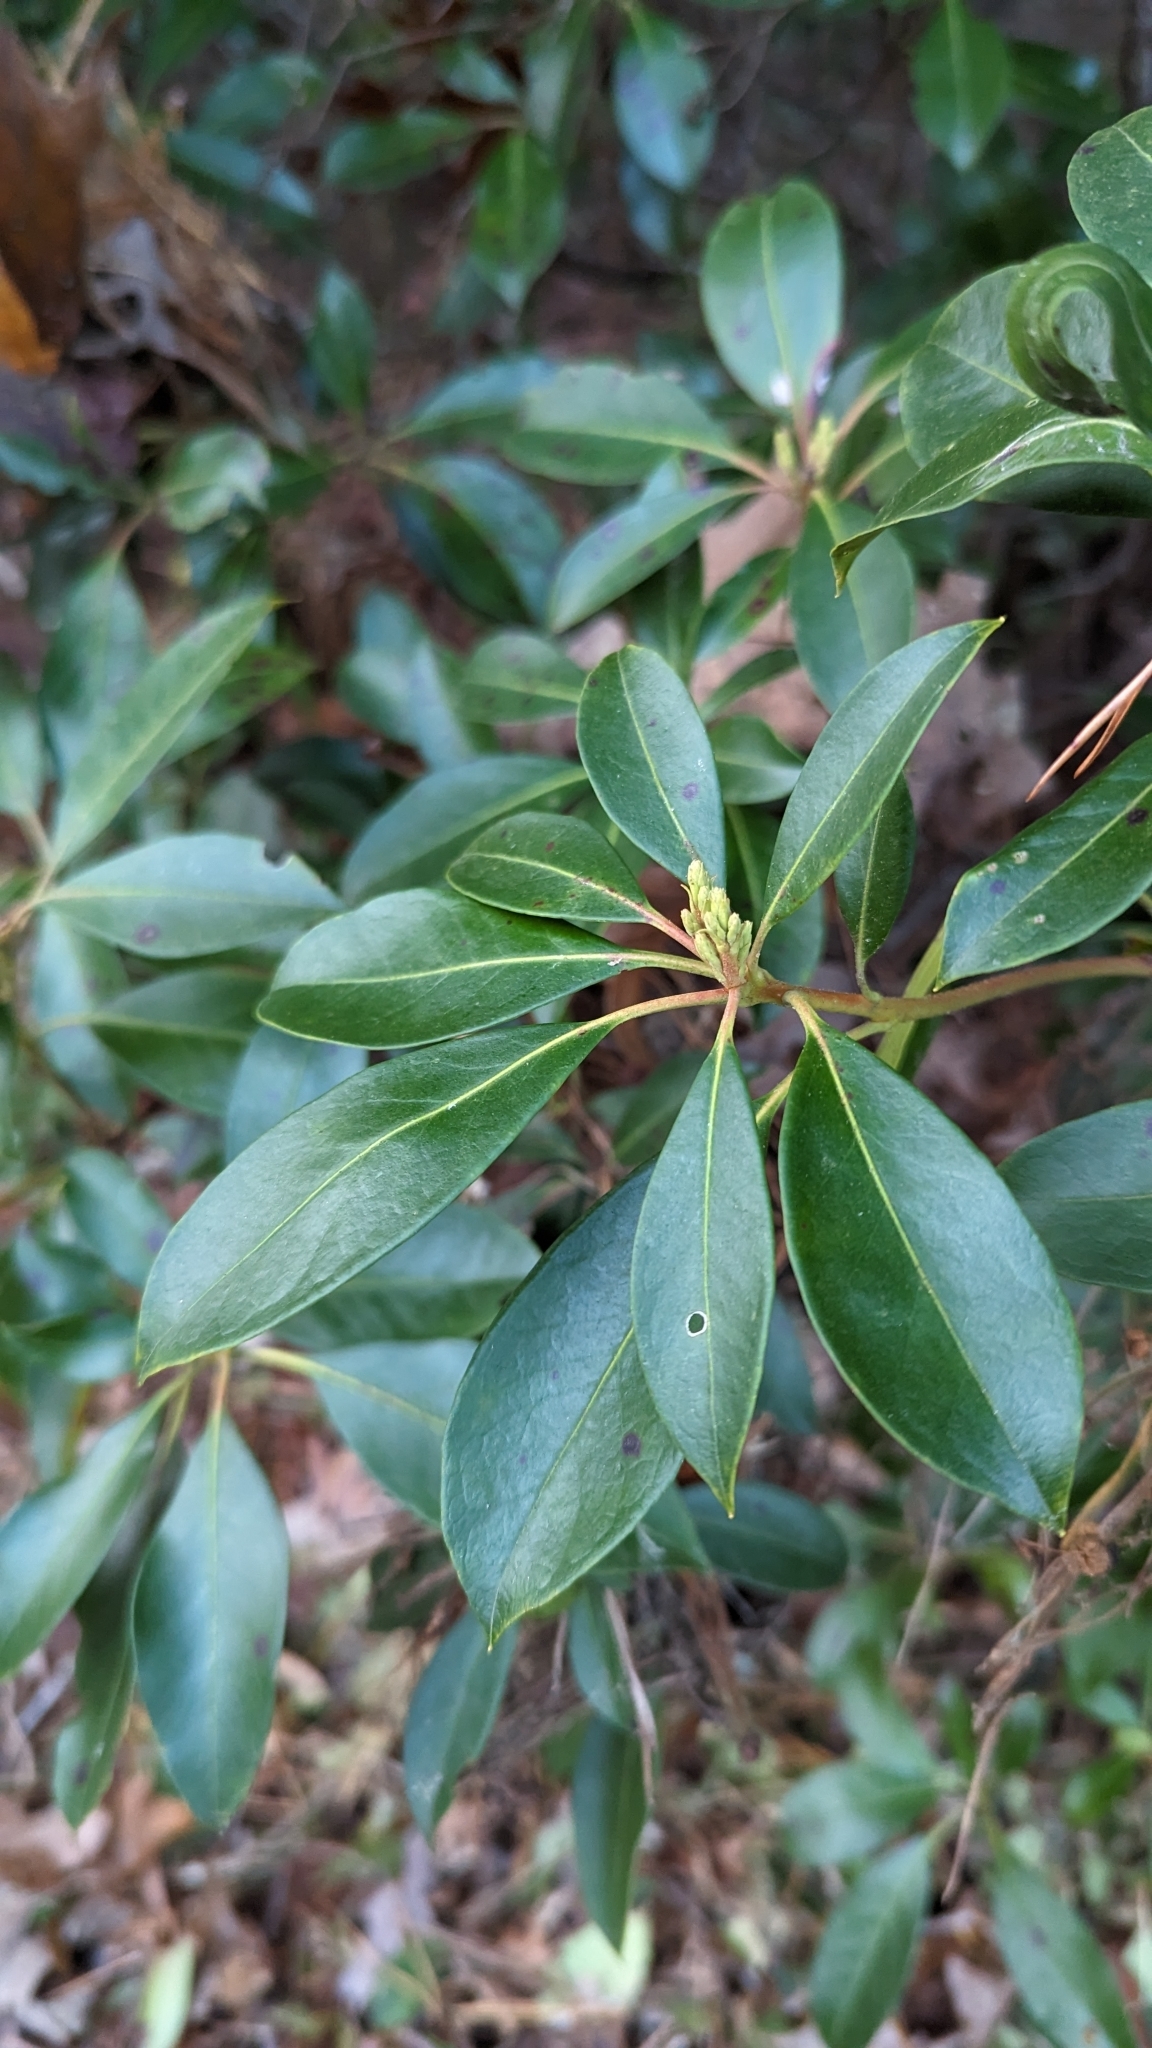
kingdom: Plantae
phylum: Tracheophyta
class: Magnoliopsida
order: Ericales
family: Ericaceae
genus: Kalmia
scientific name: Kalmia latifolia
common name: Mountain-laurel
